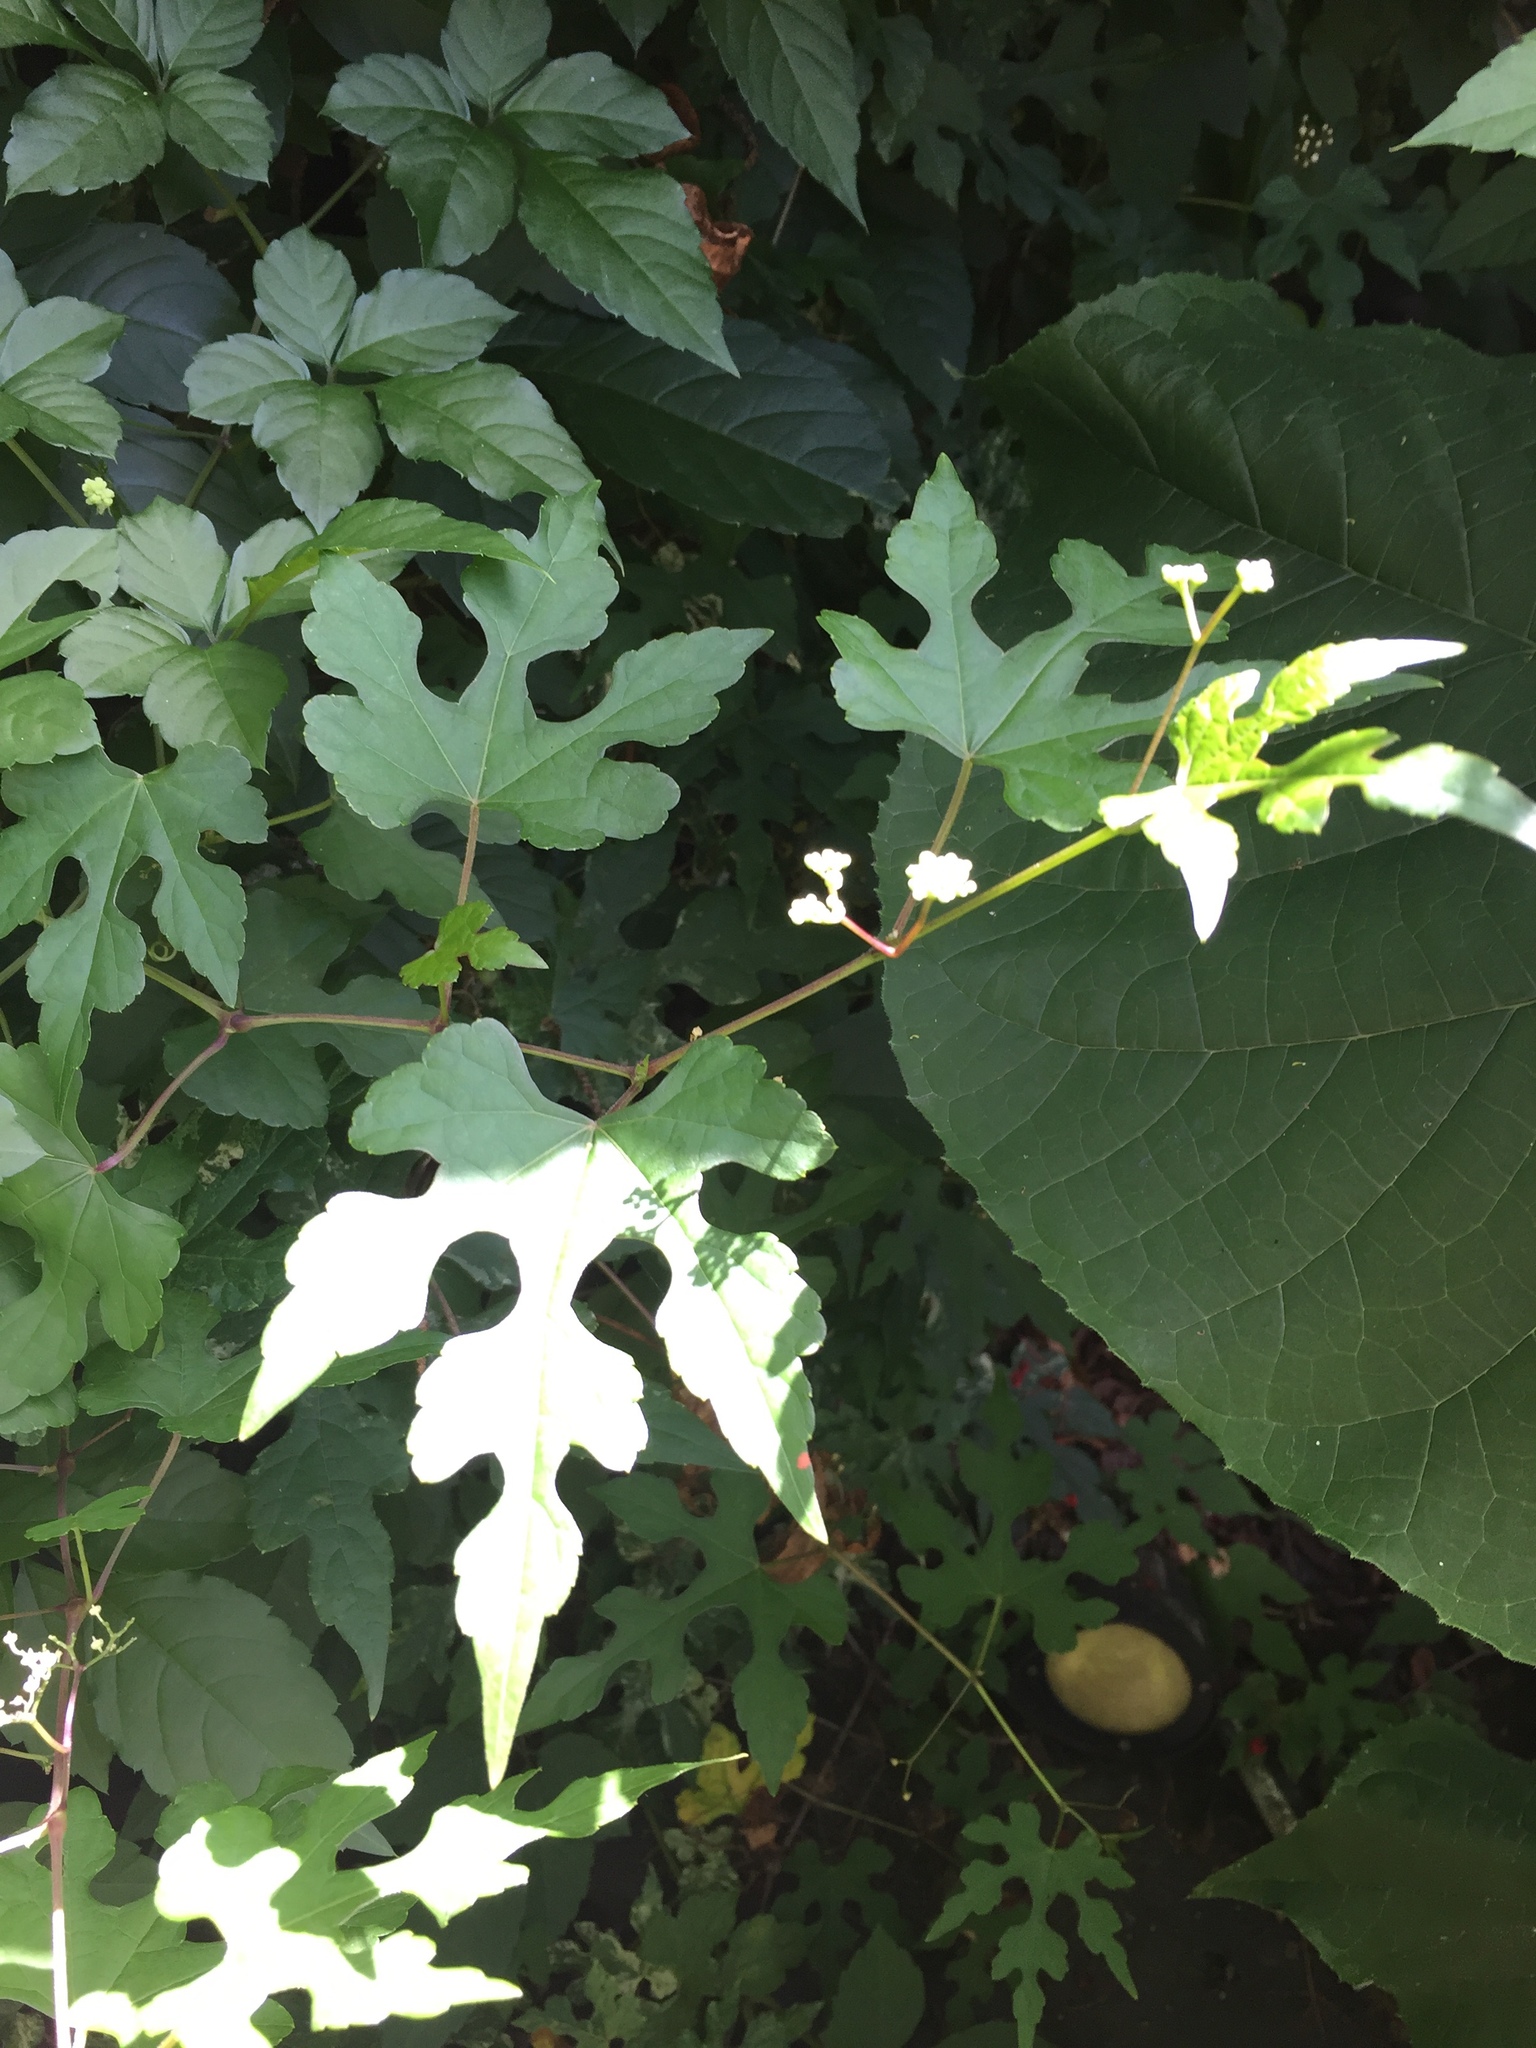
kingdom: Plantae
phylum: Tracheophyta
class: Magnoliopsida
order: Vitales
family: Vitaceae
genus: Ampelopsis
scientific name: Ampelopsis glandulosa
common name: Amur peppervine
